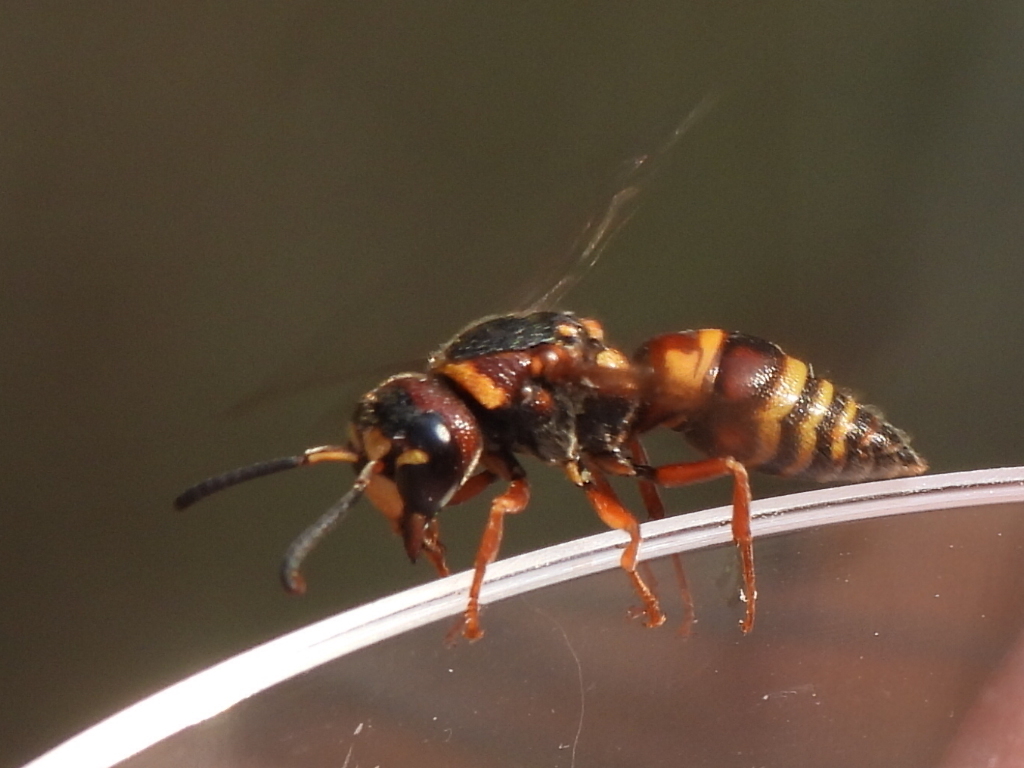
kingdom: Animalia
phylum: Arthropoda
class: Insecta
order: Hymenoptera
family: Eumenidae
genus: Euodynerus
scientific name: Euodynerus annulatus
